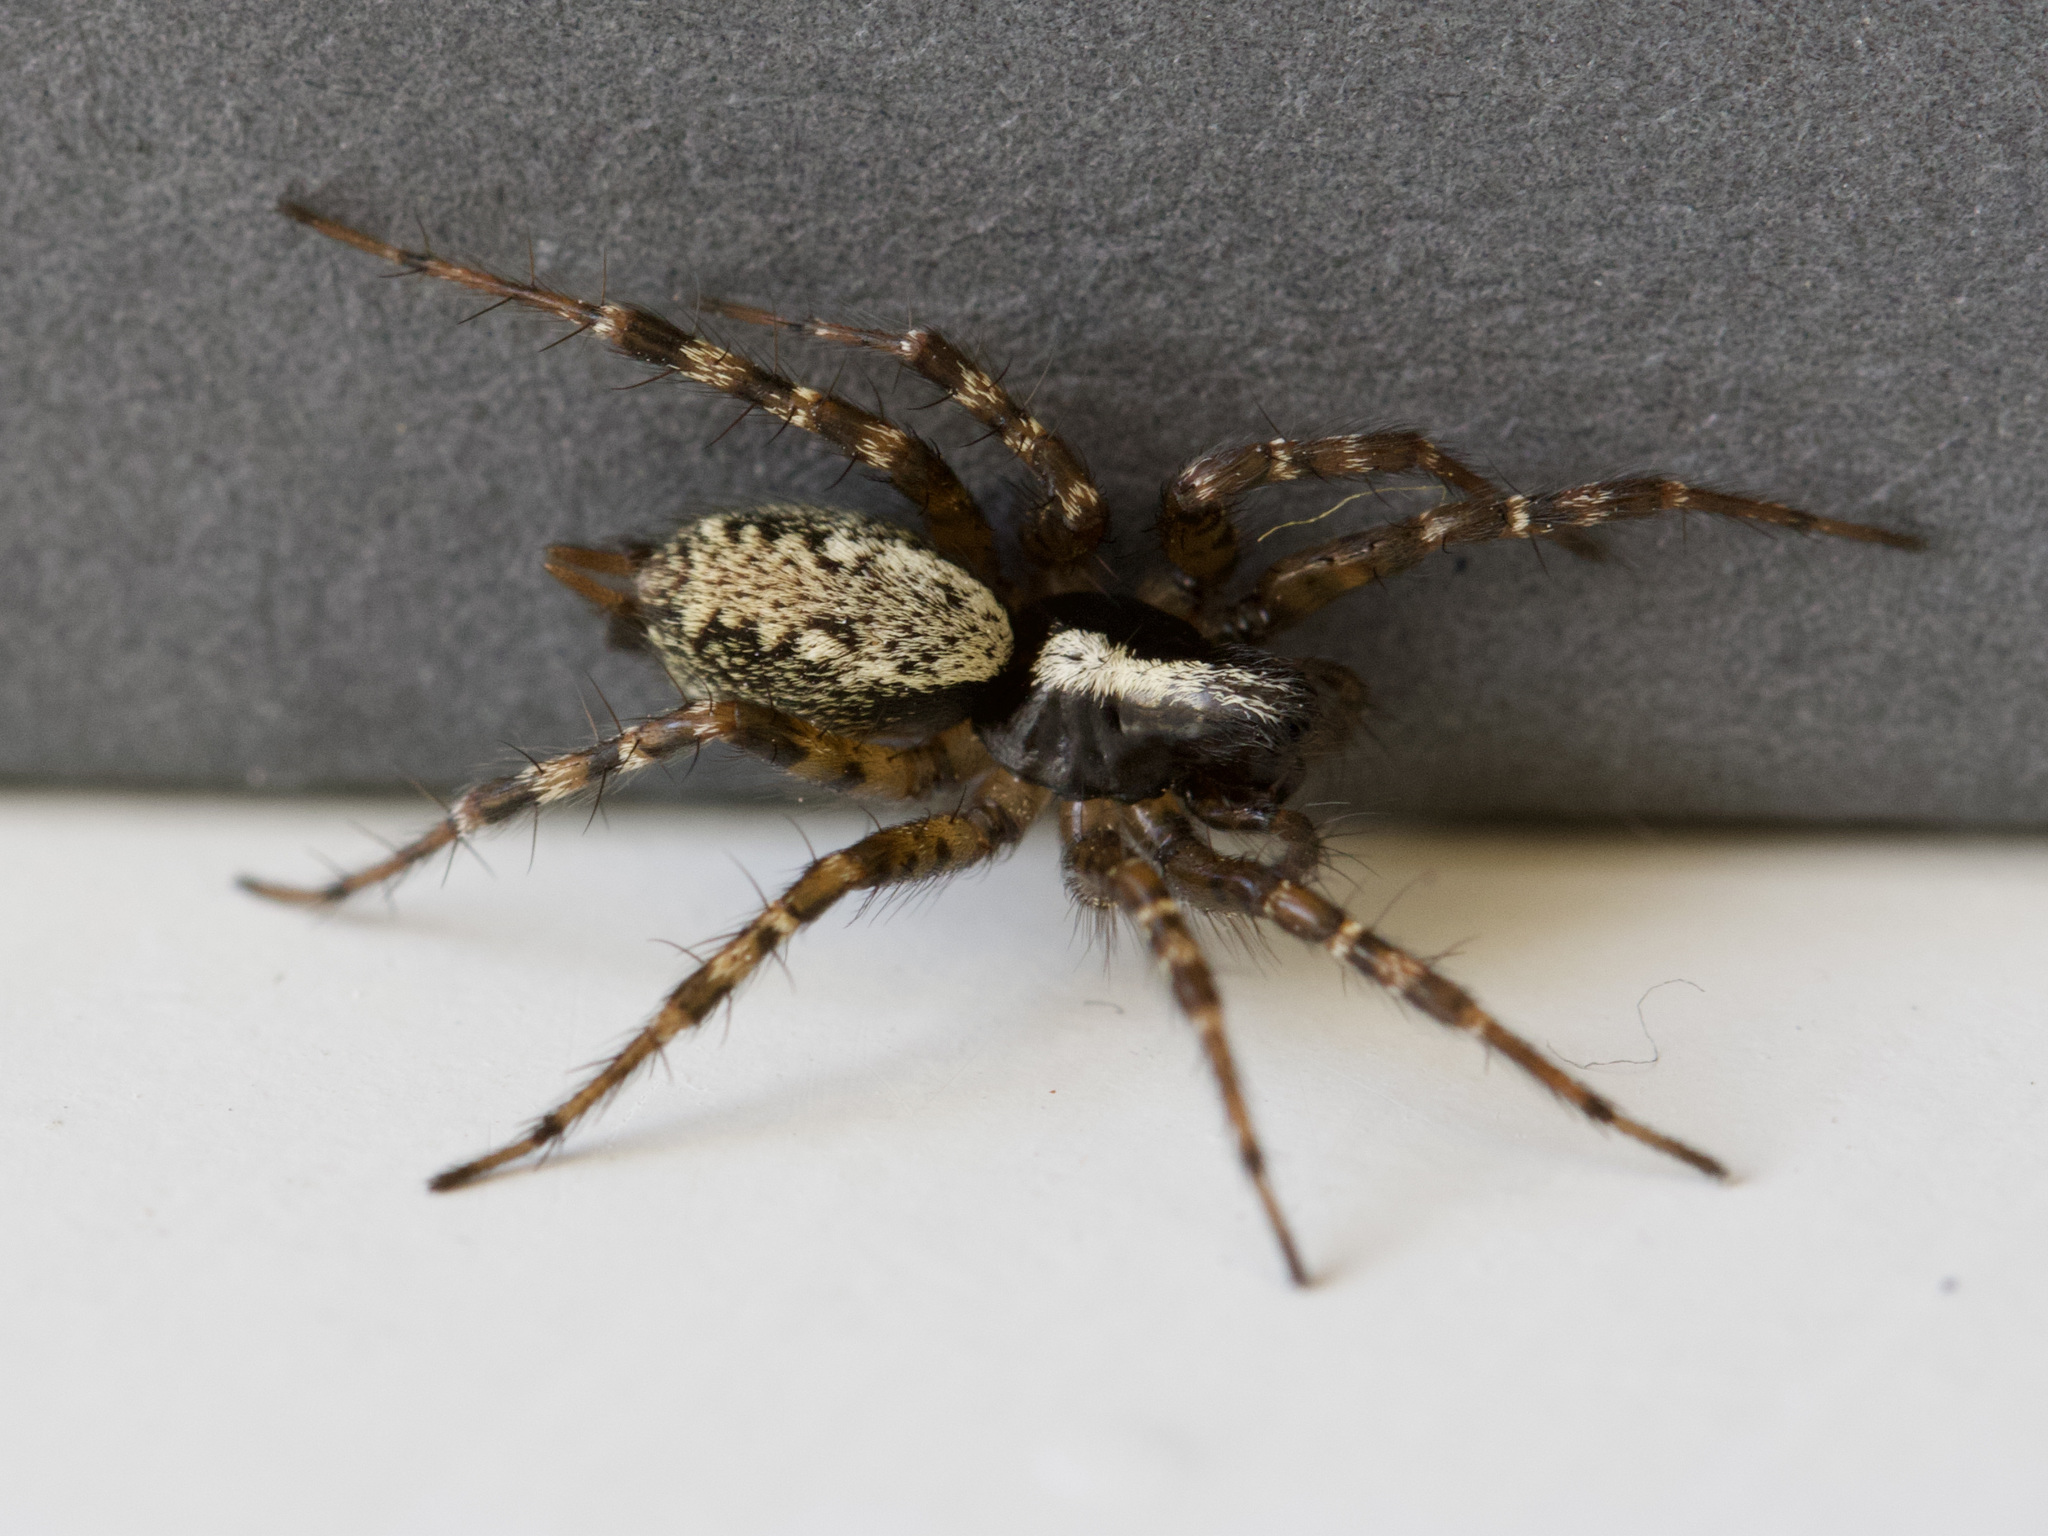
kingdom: Animalia
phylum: Arthropoda
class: Arachnida
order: Araneae
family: Agelenidae
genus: Textrix
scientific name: Textrix denticulata
